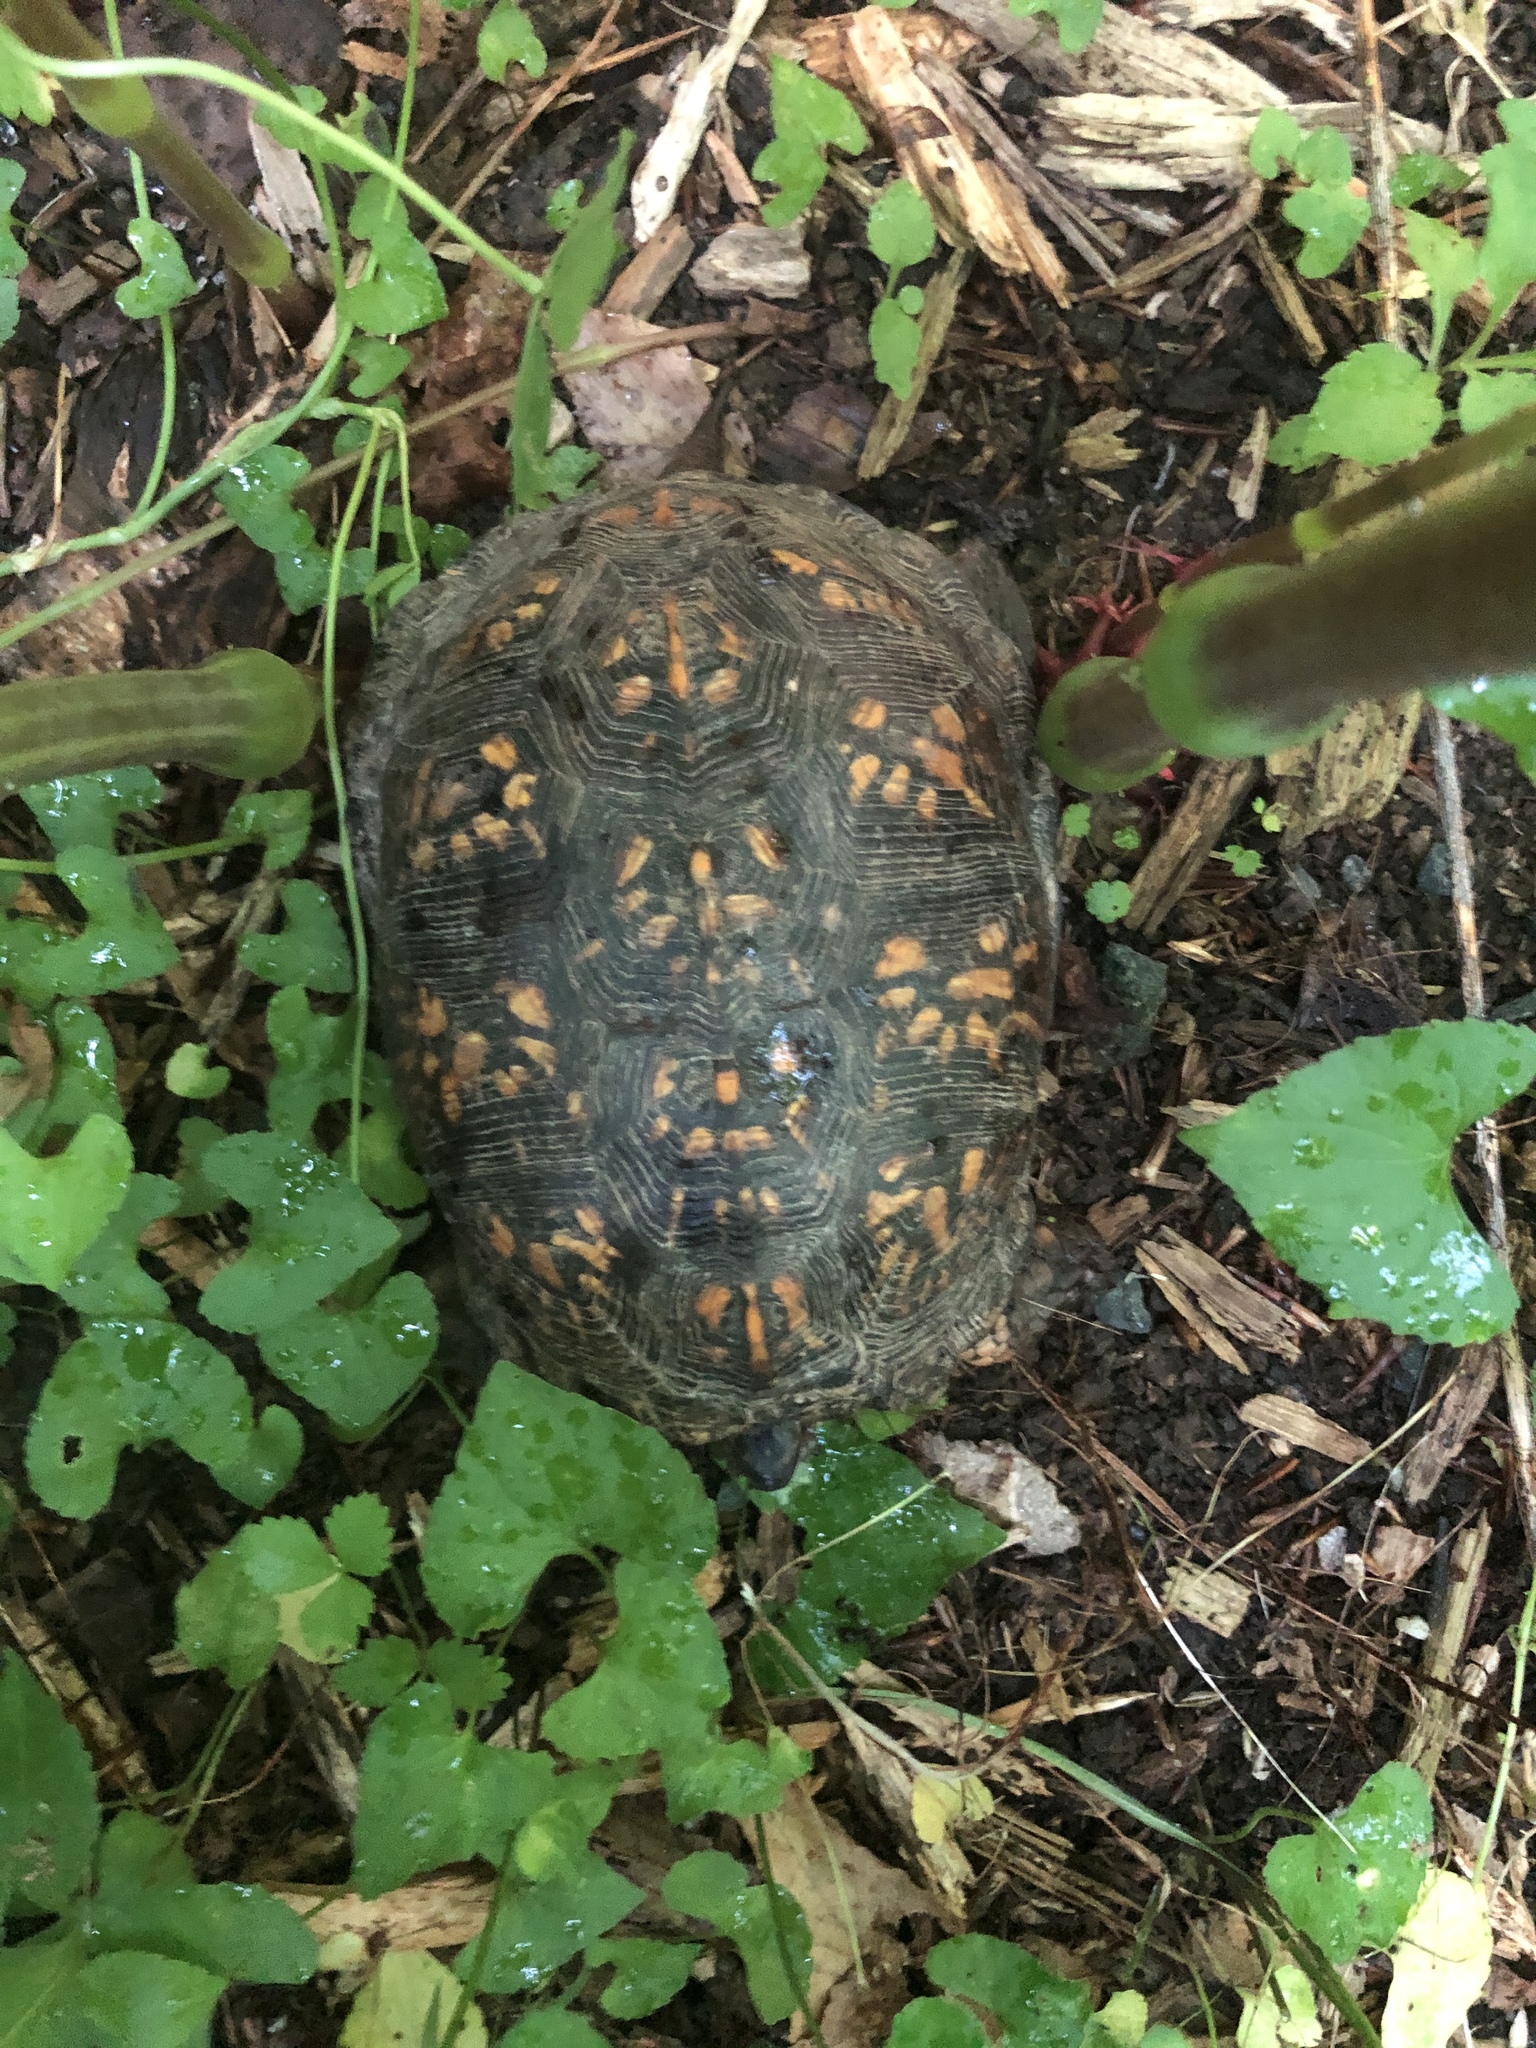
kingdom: Animalia
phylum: Chordata
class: Testudines
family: Emydidae
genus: Terrapene
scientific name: Terrapene carolina
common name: Common box turtle
